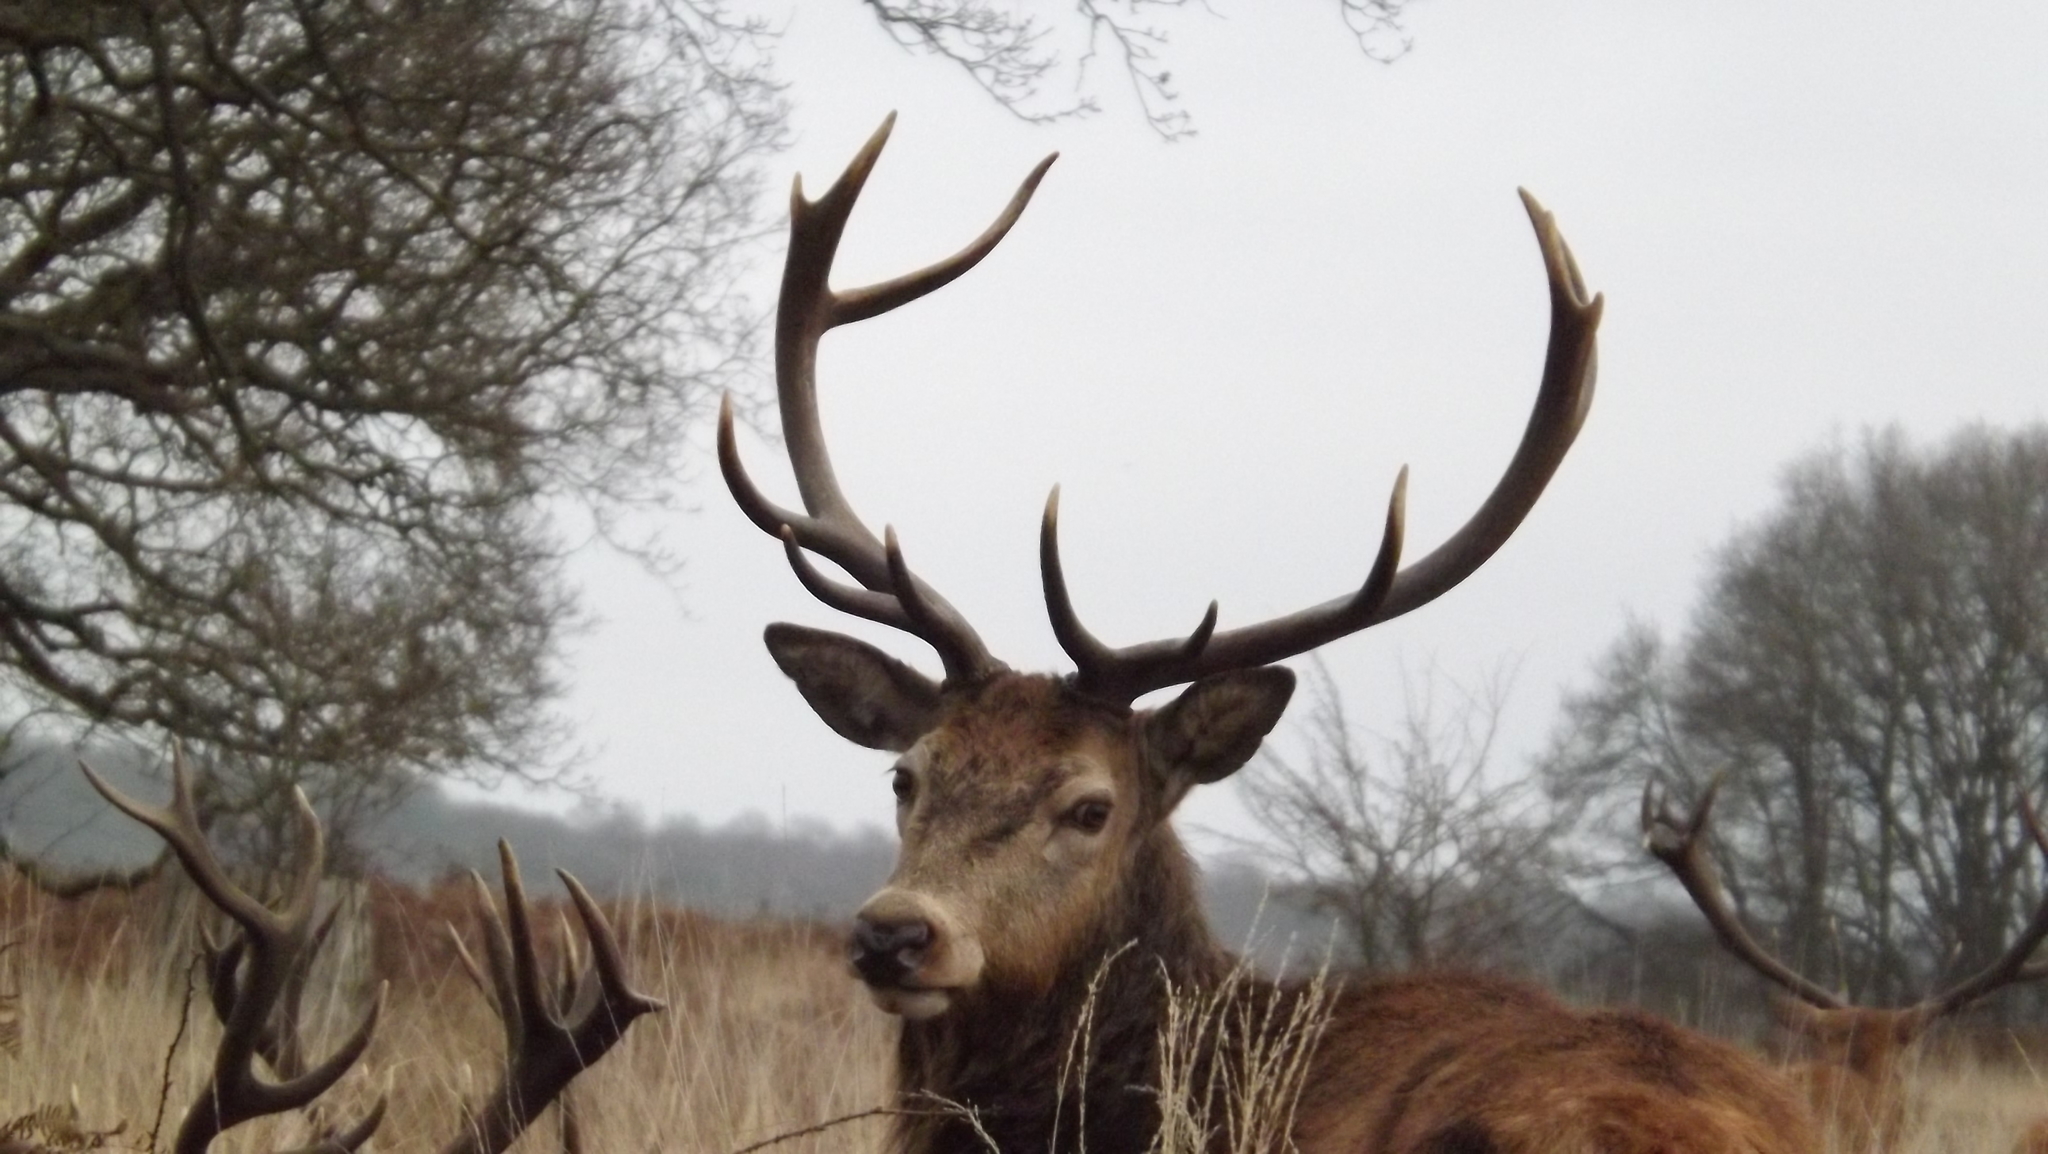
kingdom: Animalia
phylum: Chordata
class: Mammalia
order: Artiodactyla
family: Cervidae
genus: Cervus
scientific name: Cervus elaphus
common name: Red deer
